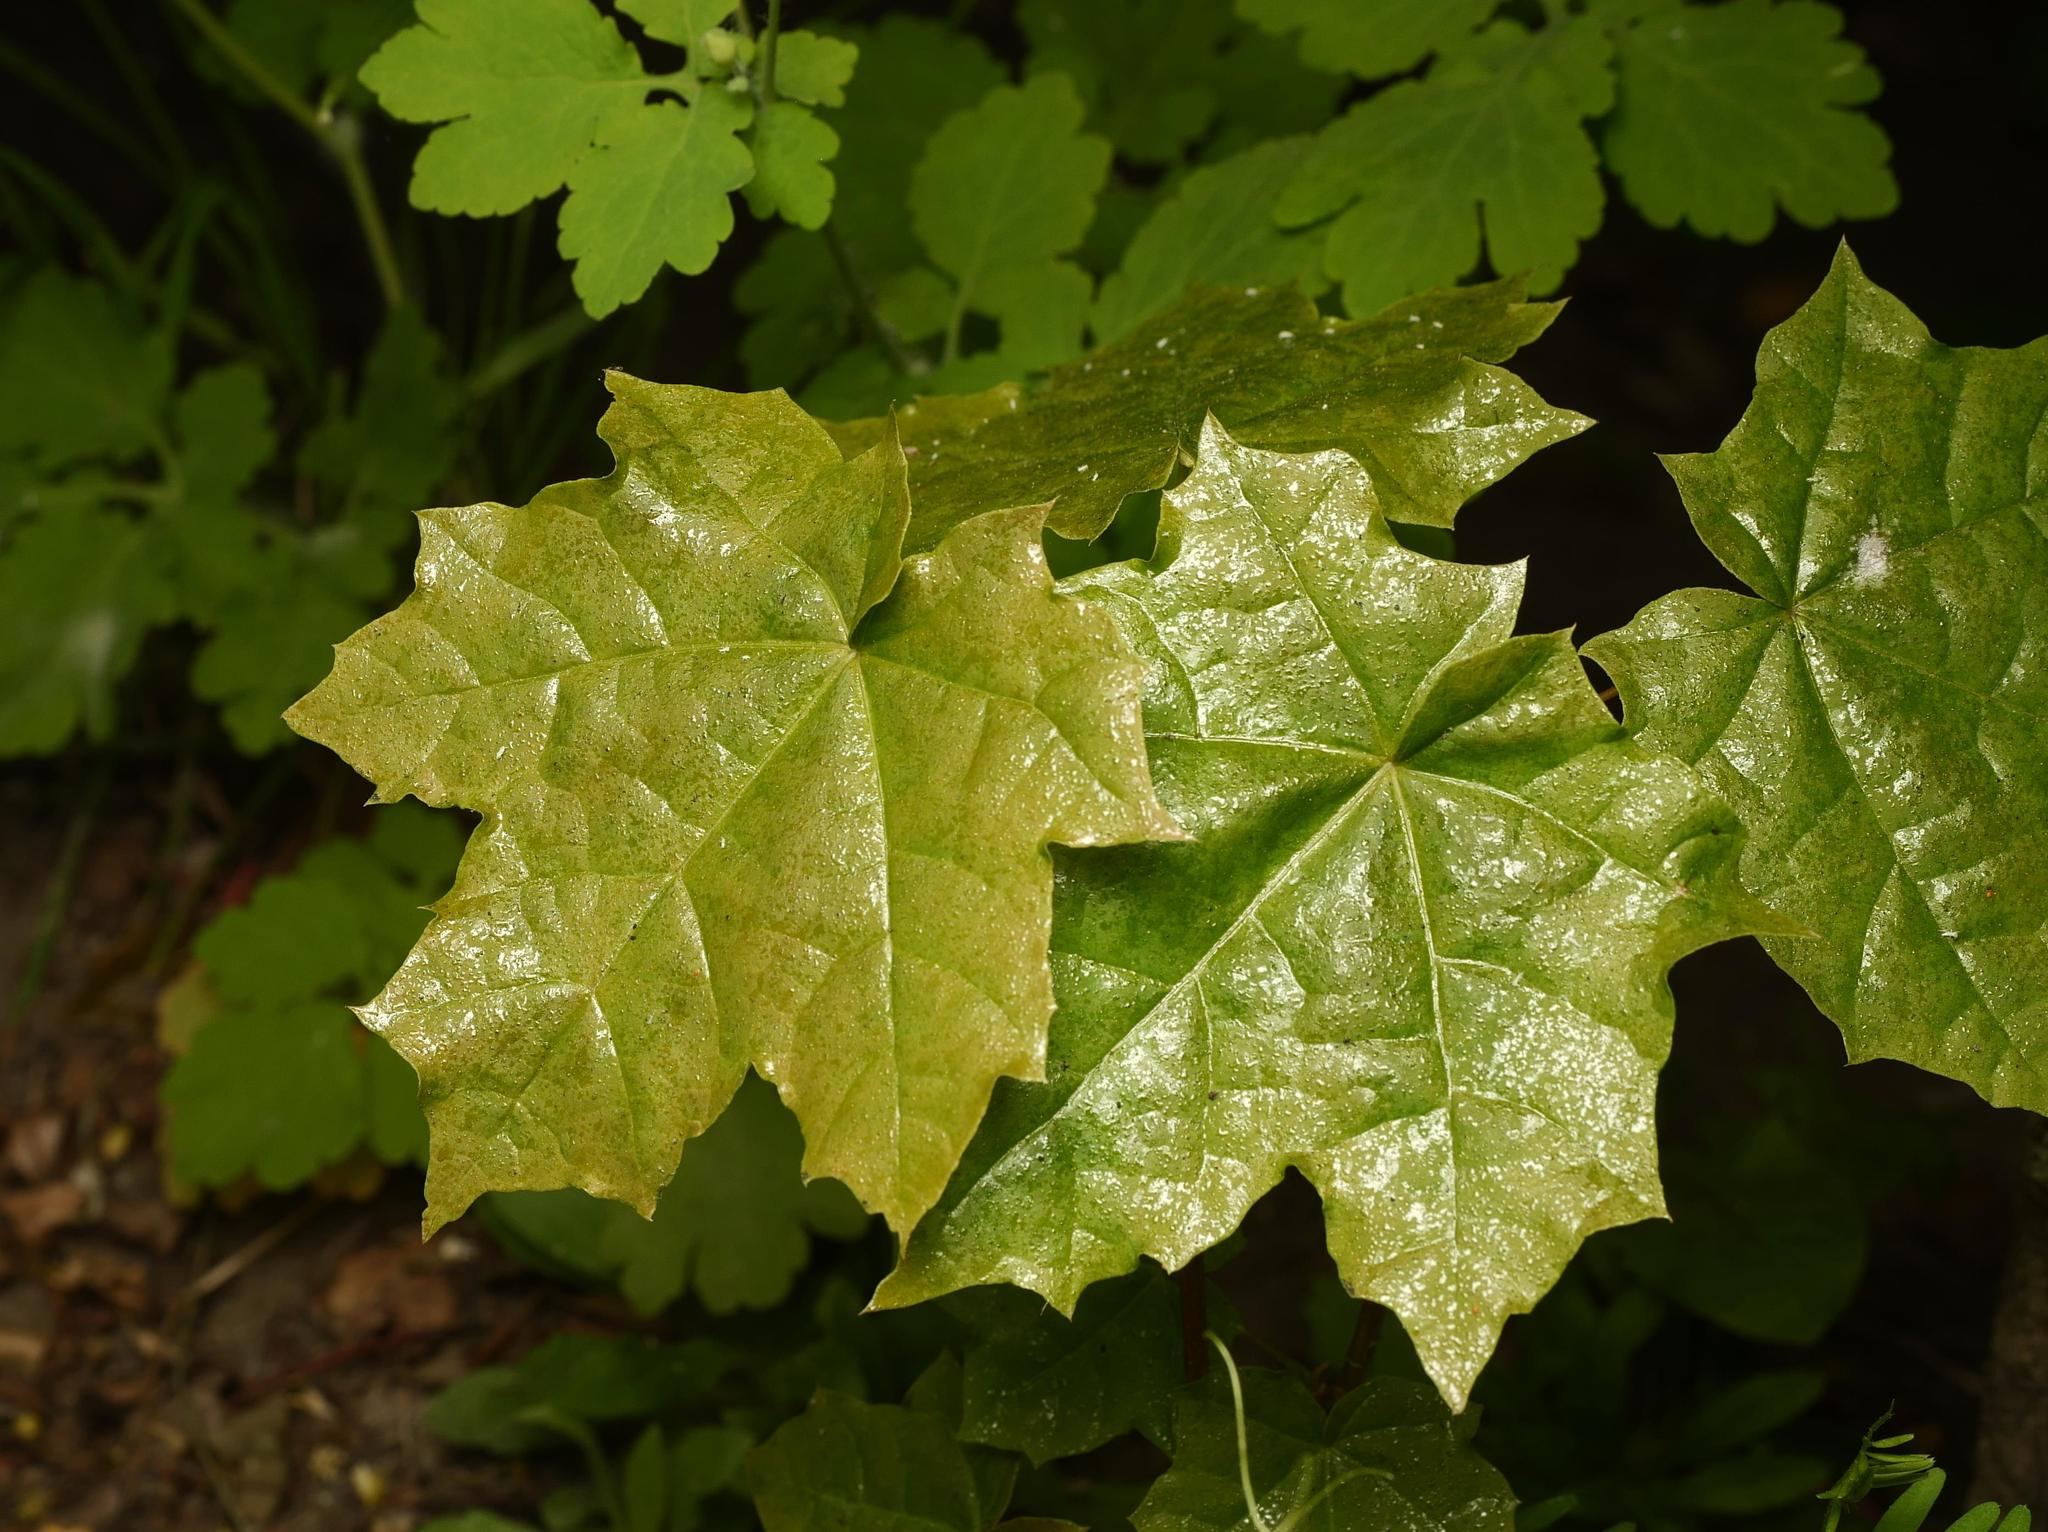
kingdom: Plantae
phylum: Tracheophyta
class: Magnoliopsida
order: Sapindales
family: Sapindaceae
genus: Acer
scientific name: Acer platanoides
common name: Norway maple
